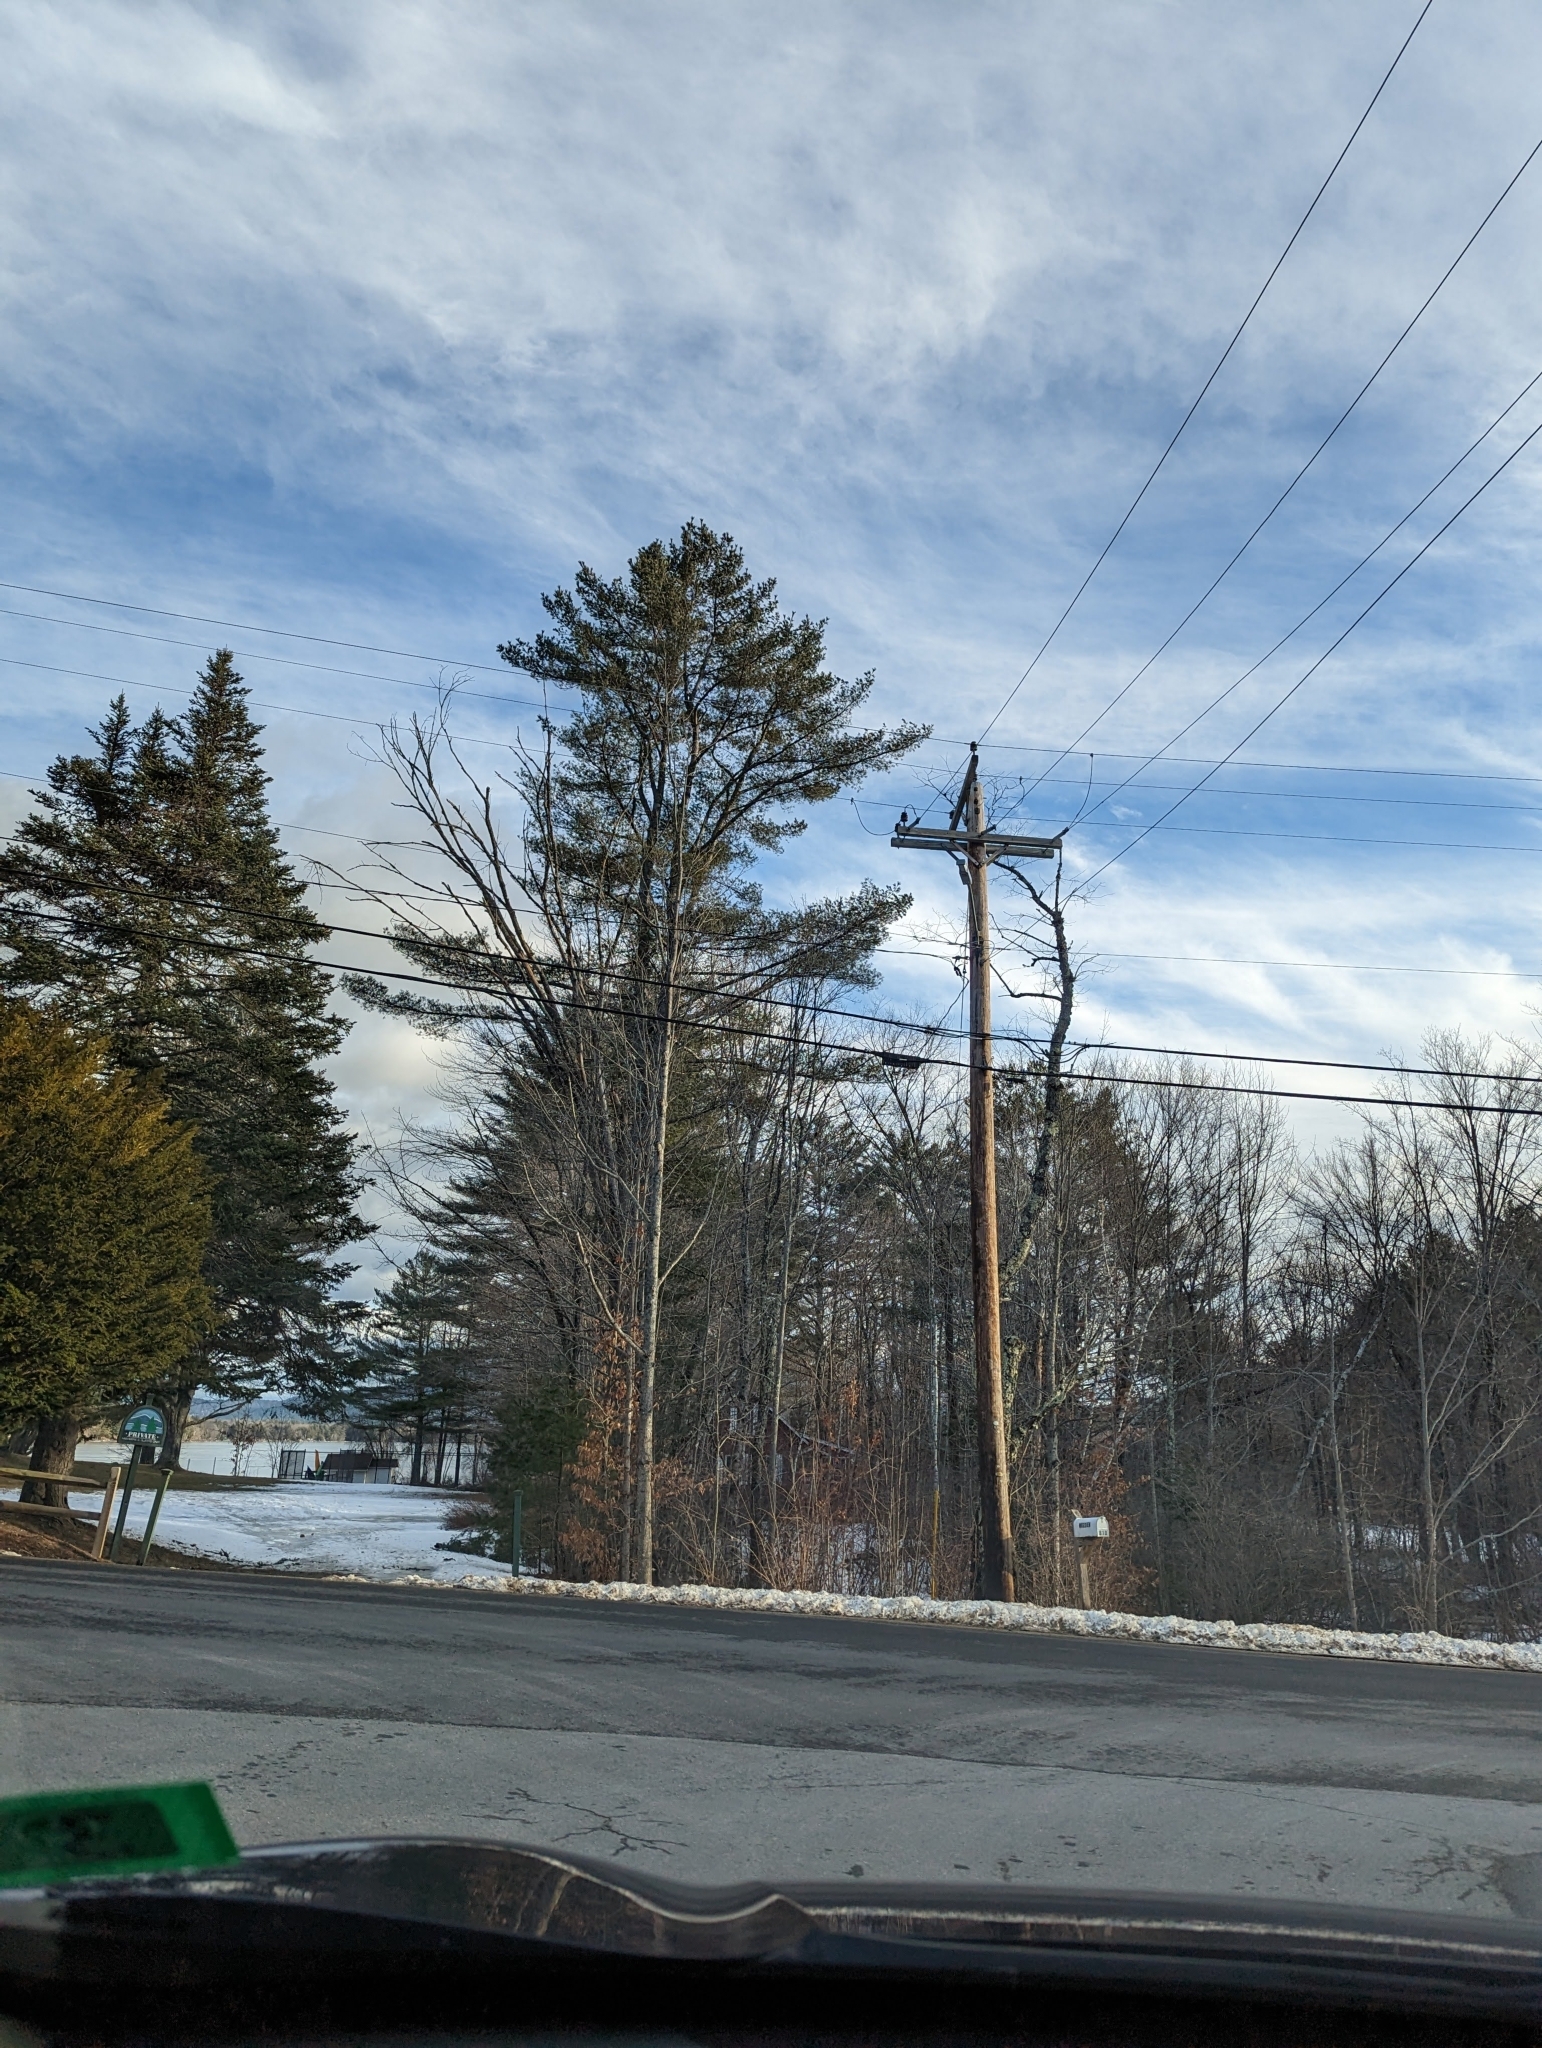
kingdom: Plantae
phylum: Tracheophyta
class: Pinopsida
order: Pinales
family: Pinaceae
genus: Pinus
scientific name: Pinus strobus
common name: Weymouth pine
